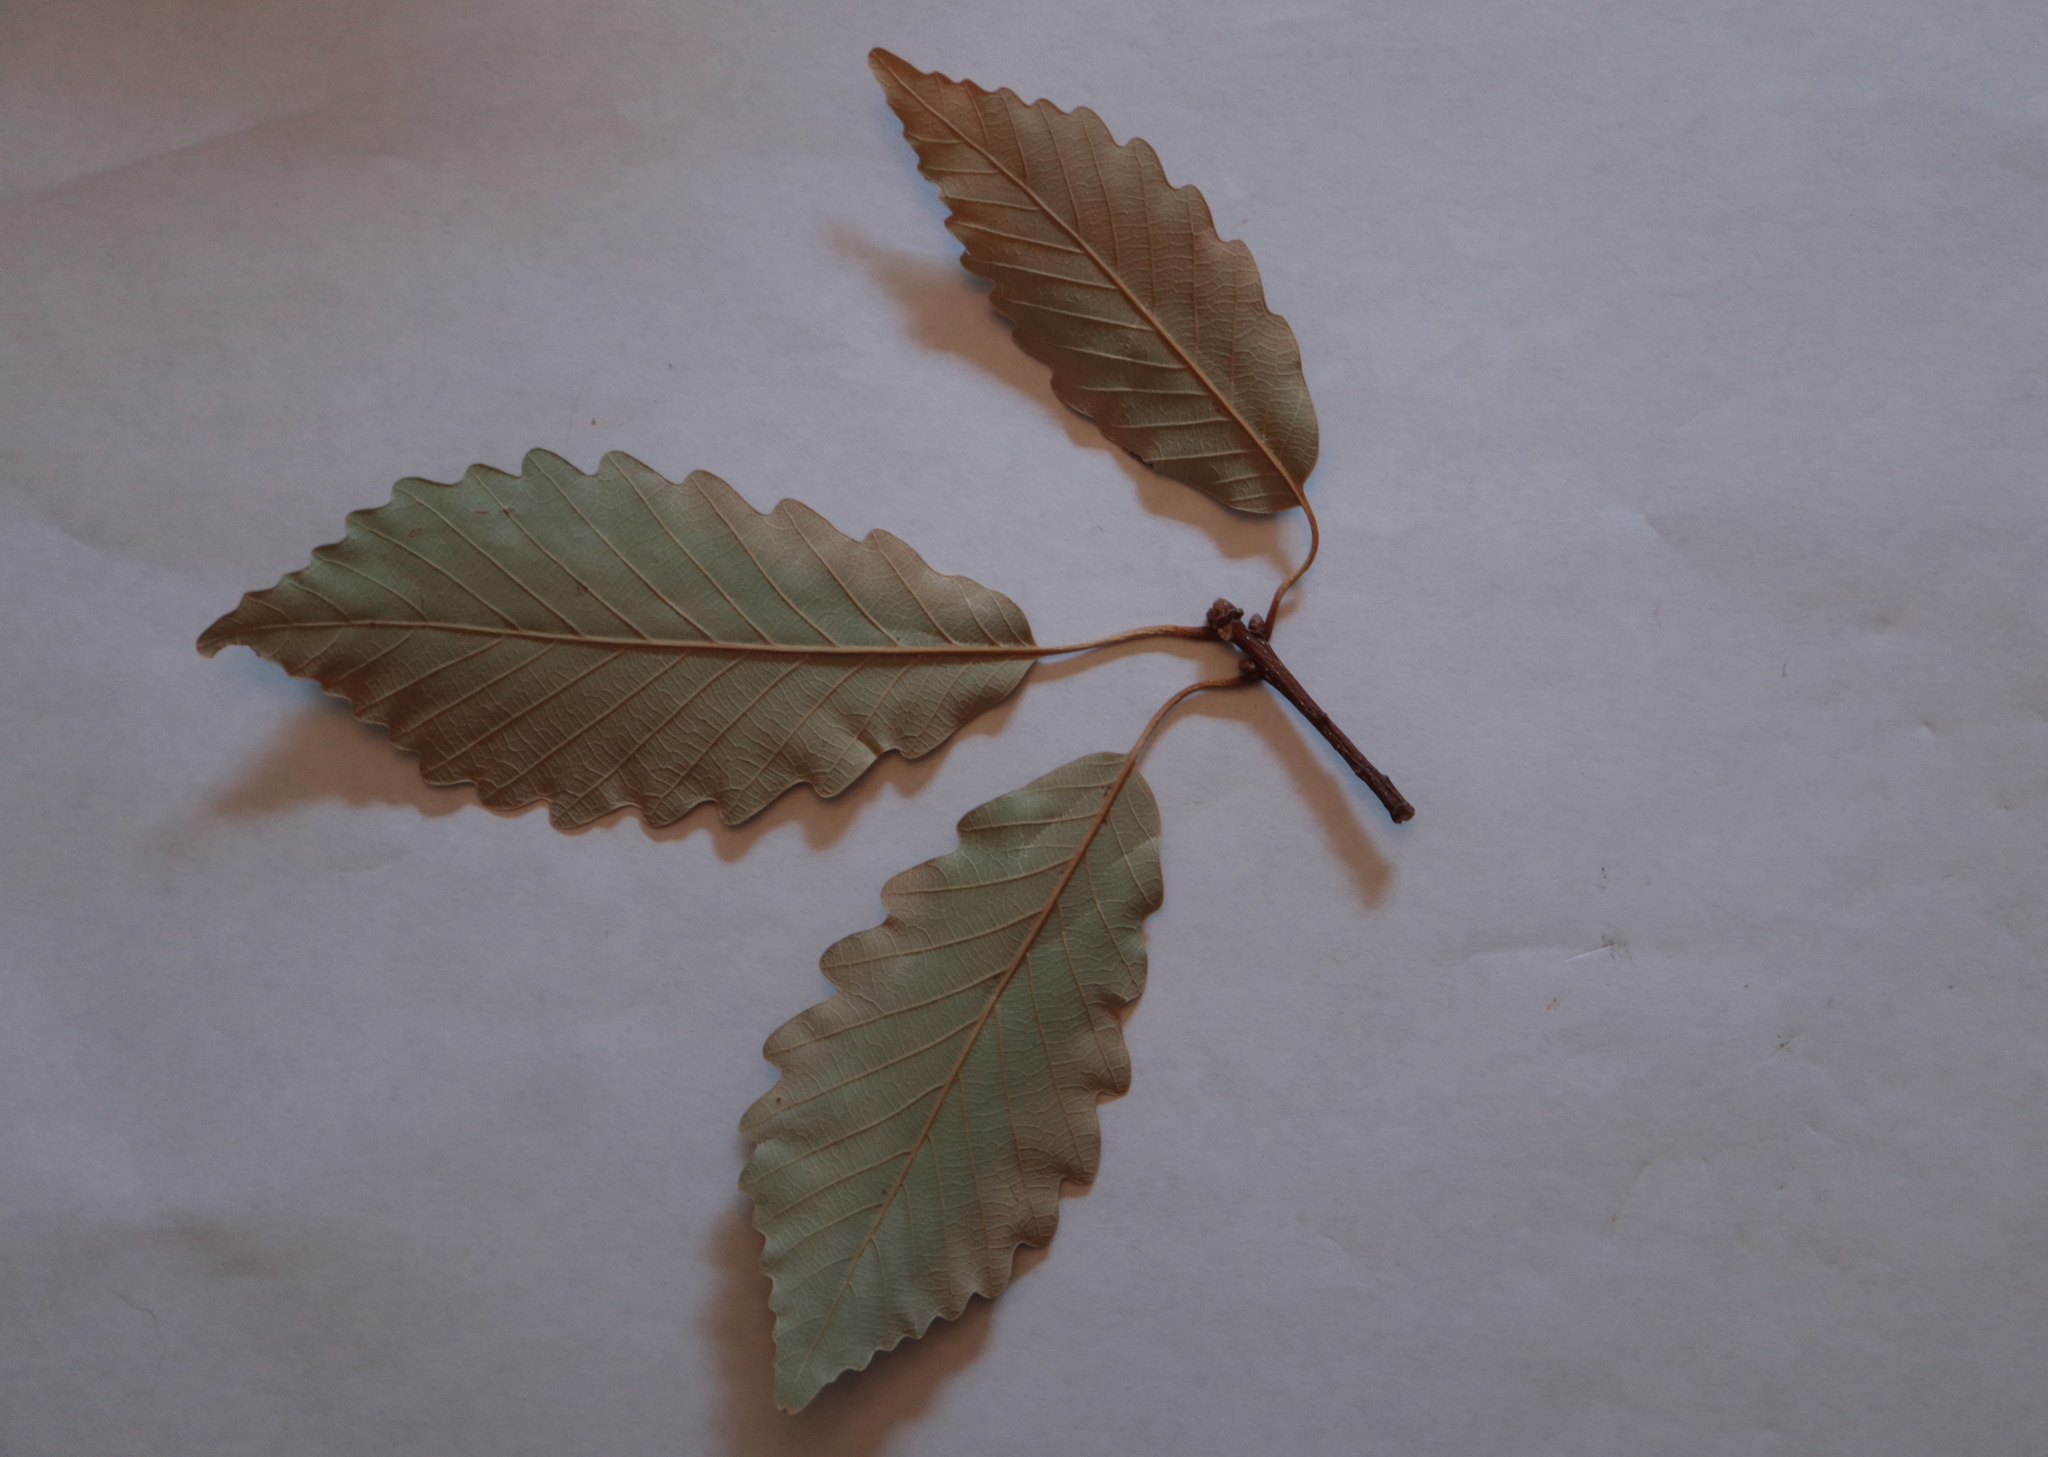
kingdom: Plantae
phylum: Tracheophyta
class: Magnoliopsida
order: Fagales
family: Fagaceae
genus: Quercus
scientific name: Quercus montana
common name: Chestnut oak
